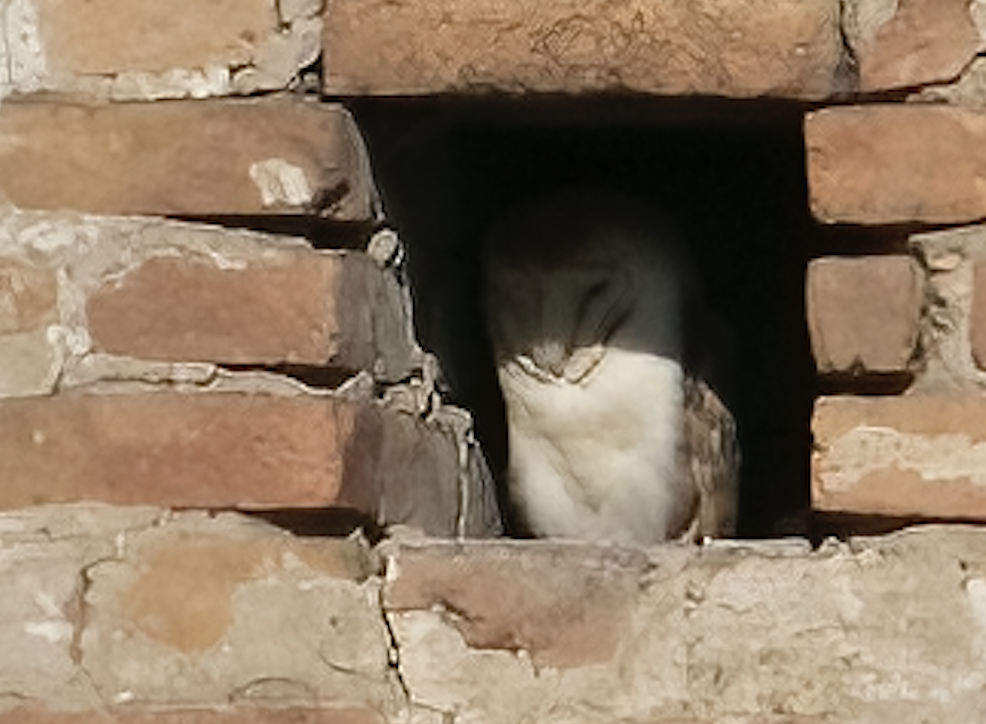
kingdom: Animalia
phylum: Chordata
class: Aves
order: Strigiformes
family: Tytonidae
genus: Tyto
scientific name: Tyto alba
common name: Barn owl
